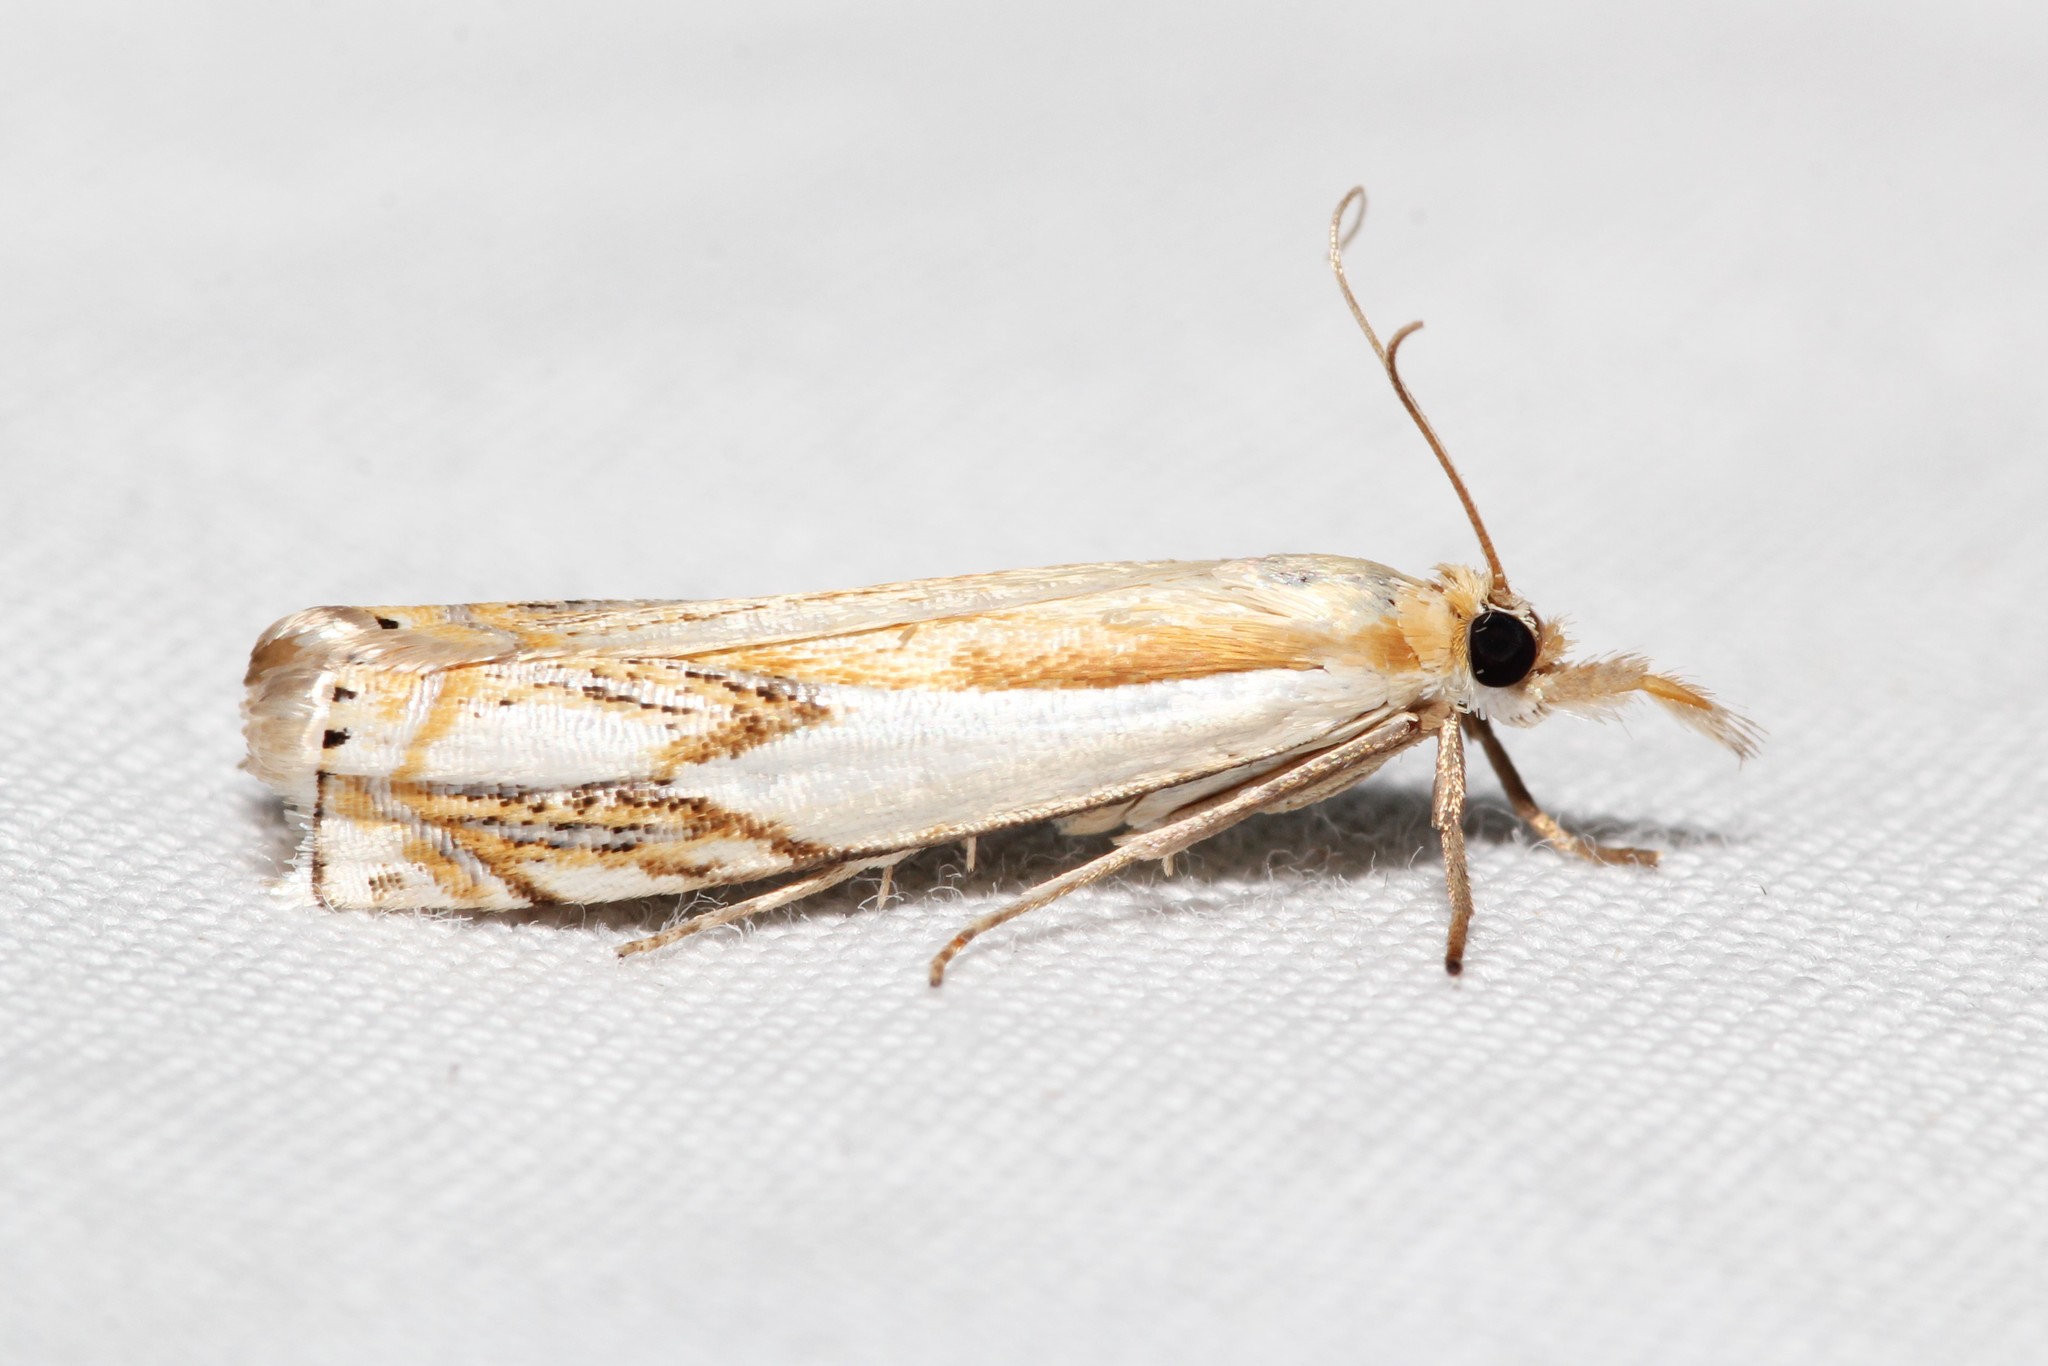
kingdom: Animalia
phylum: Arthropoda
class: Insecta
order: Lepidoptera
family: Crambidae
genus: Crambus
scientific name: Crambus agitatellus
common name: Double-banded grass-veneer
